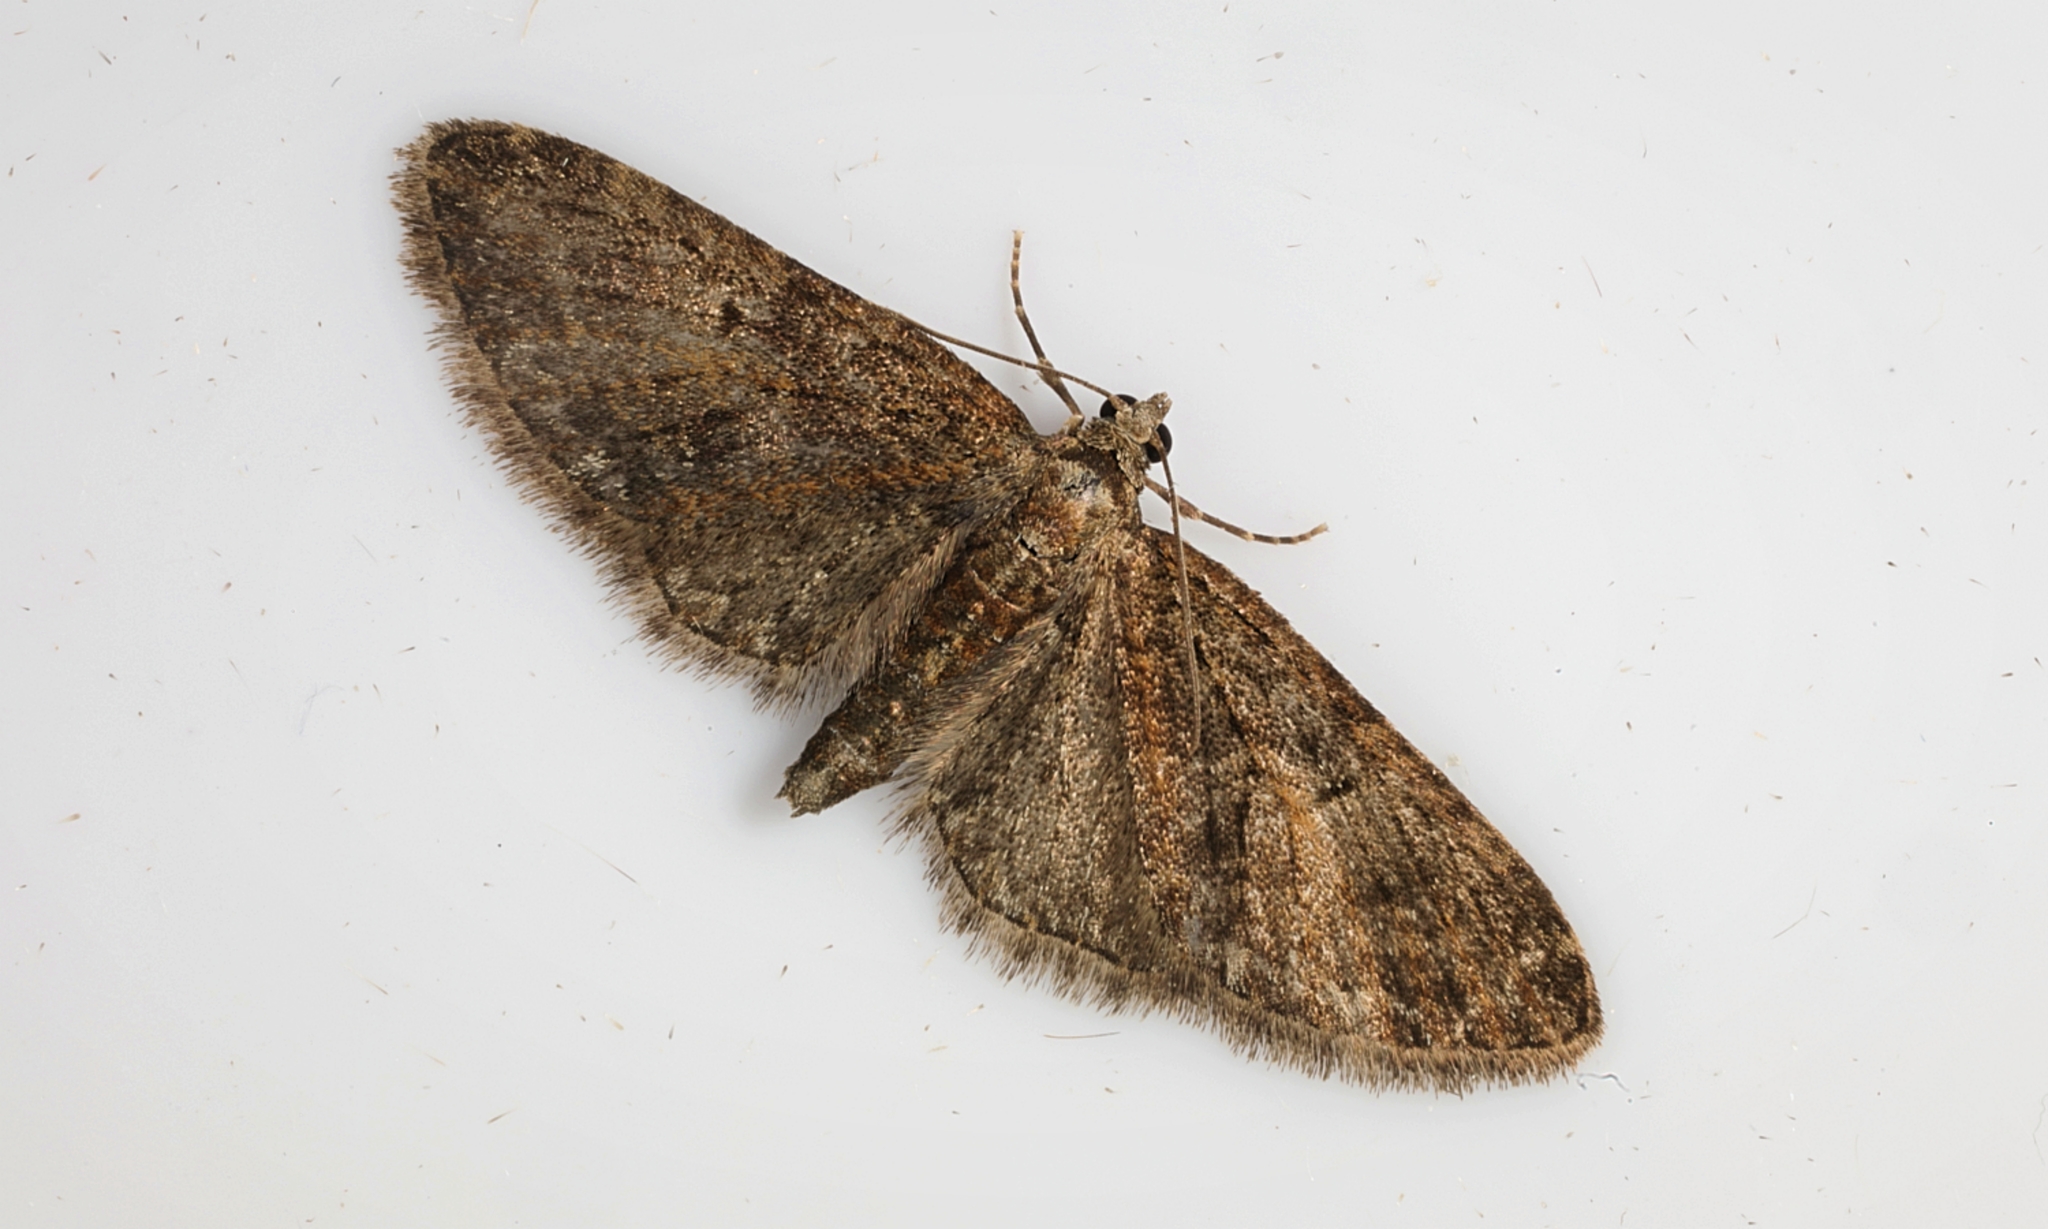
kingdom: Animalia
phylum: Arthropoda
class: Insecta
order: Lepidoptera
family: Geometridae
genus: Eupithecia
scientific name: Eupithecia abbreviata
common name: Brindled pug
